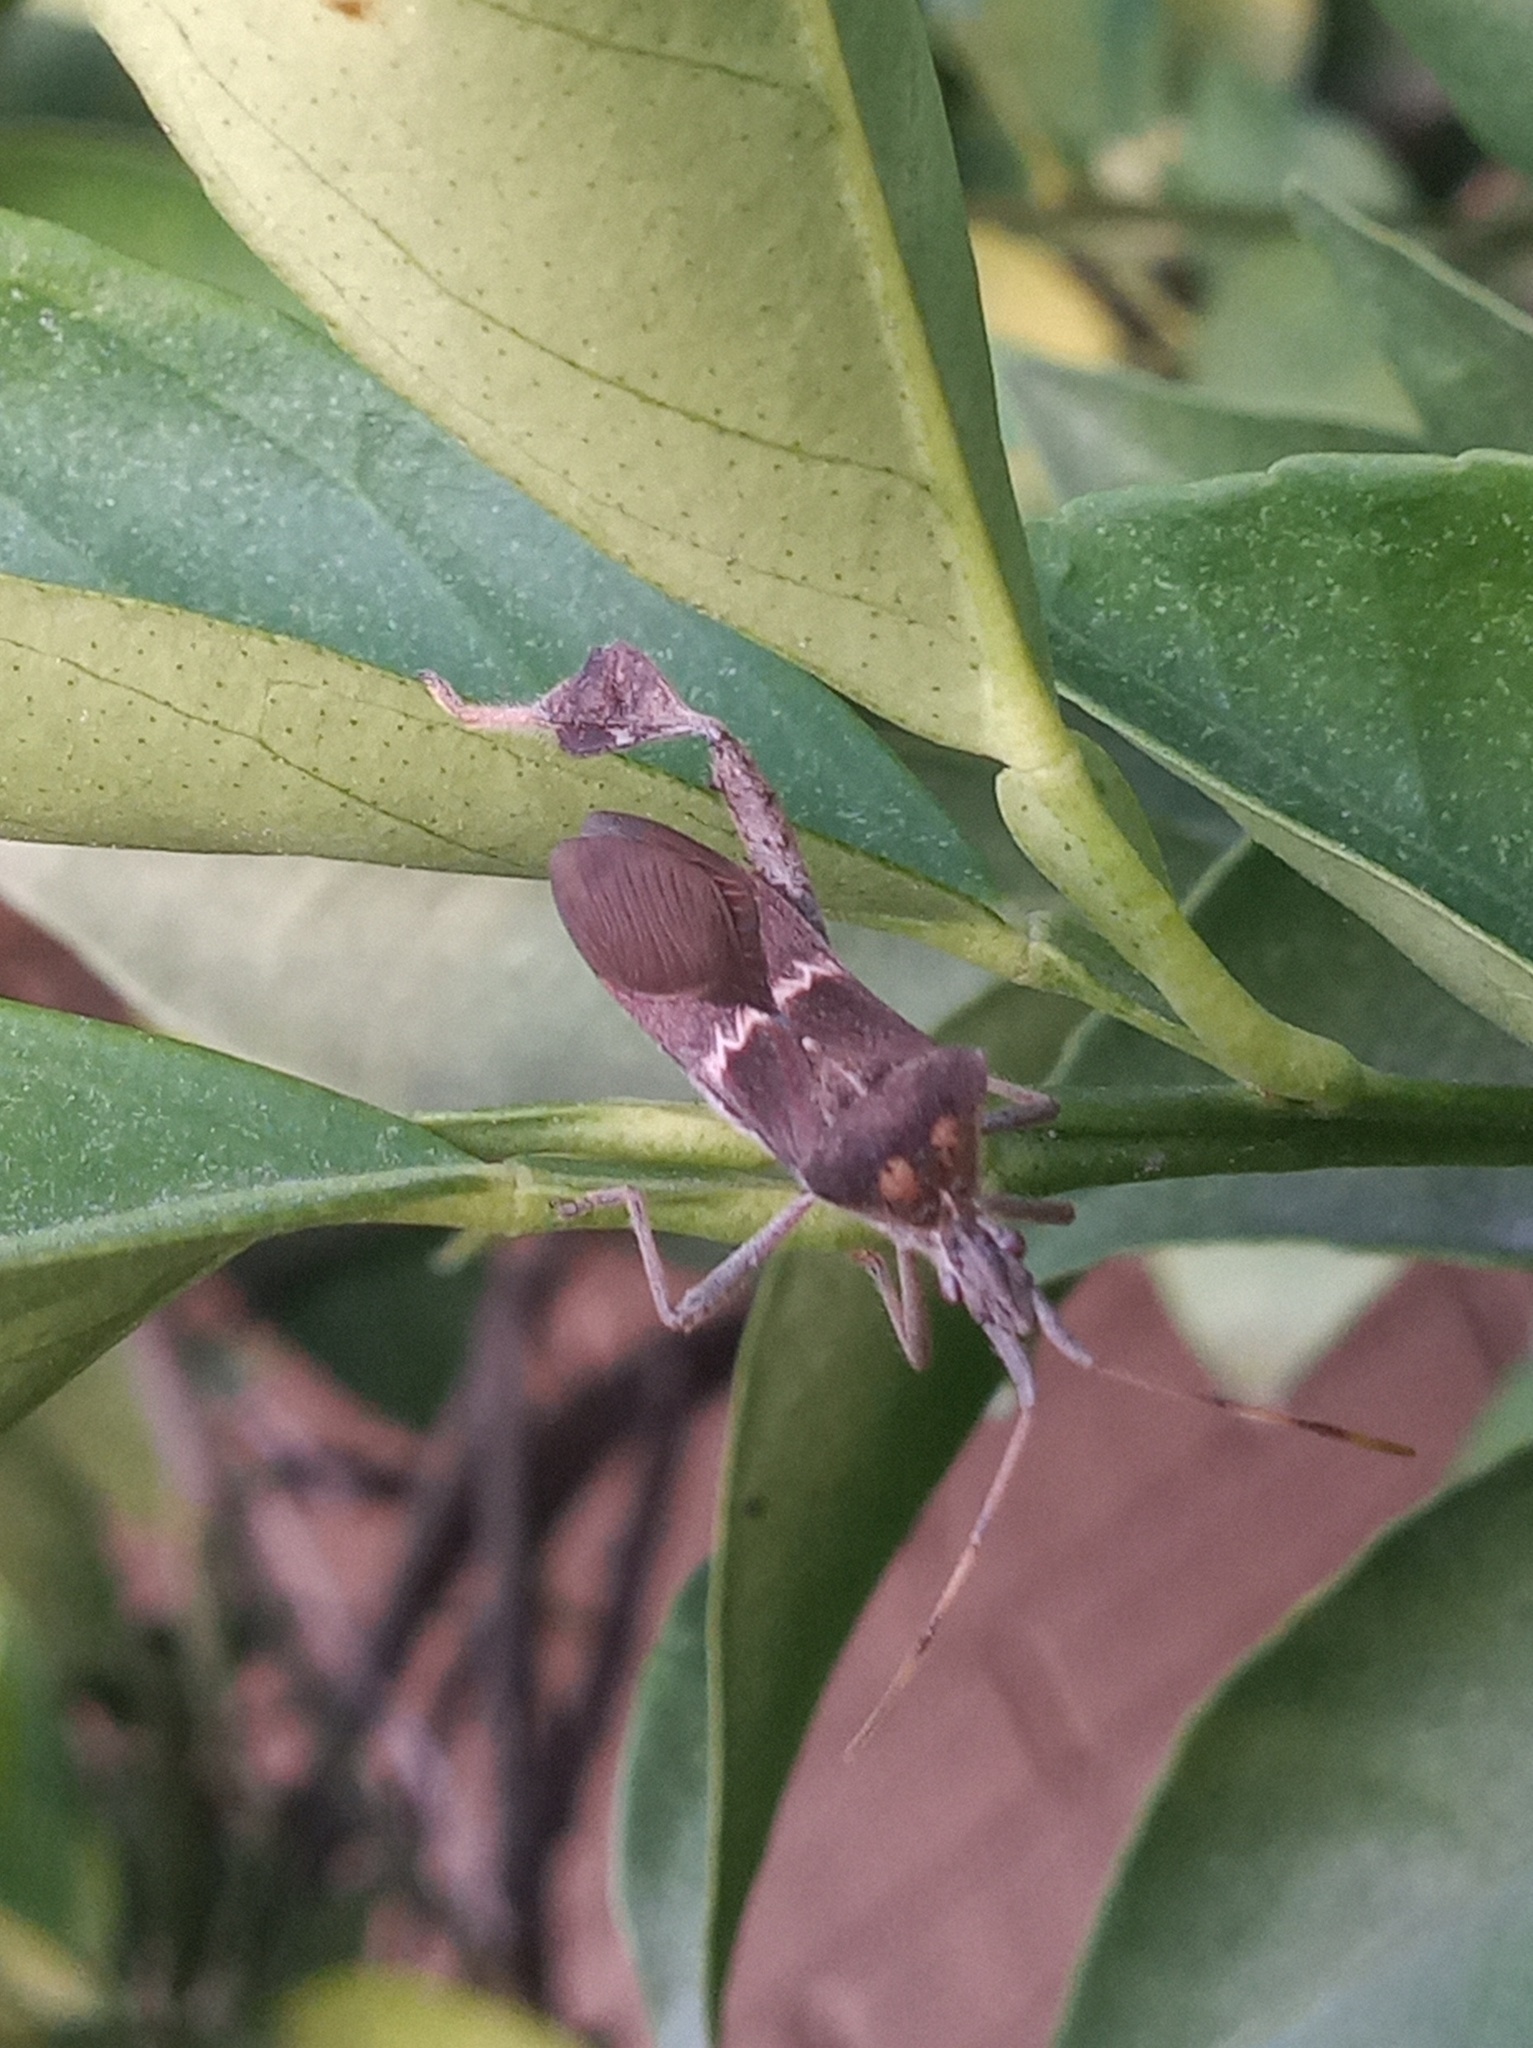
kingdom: Animalia
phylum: Arthropoda
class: Insecta
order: Hemiptera
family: Coreidae
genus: Leptoglossus
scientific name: Leptoglossus zonatus
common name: Large-legged bug
